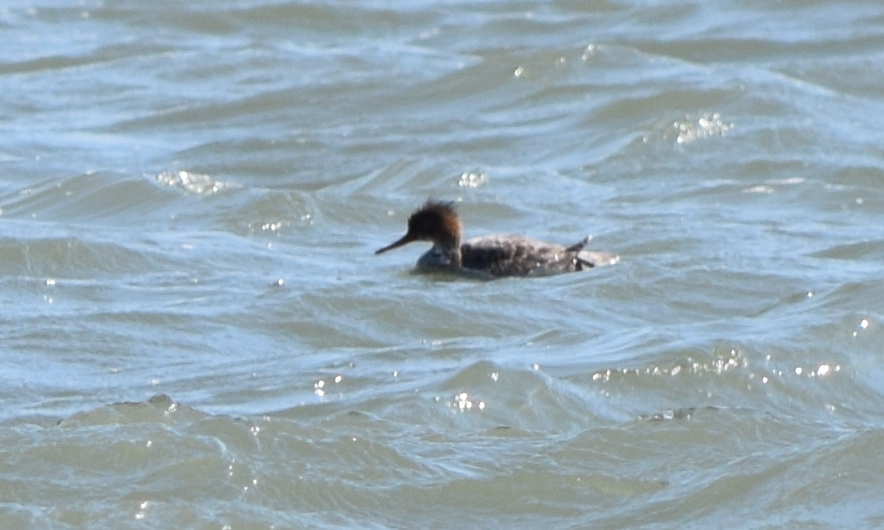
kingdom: Animalia
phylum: Chordata
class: Aves
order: Anseriformes
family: Anatidae
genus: Mergus
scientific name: Mergus serrator
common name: Red-breasted merganser
